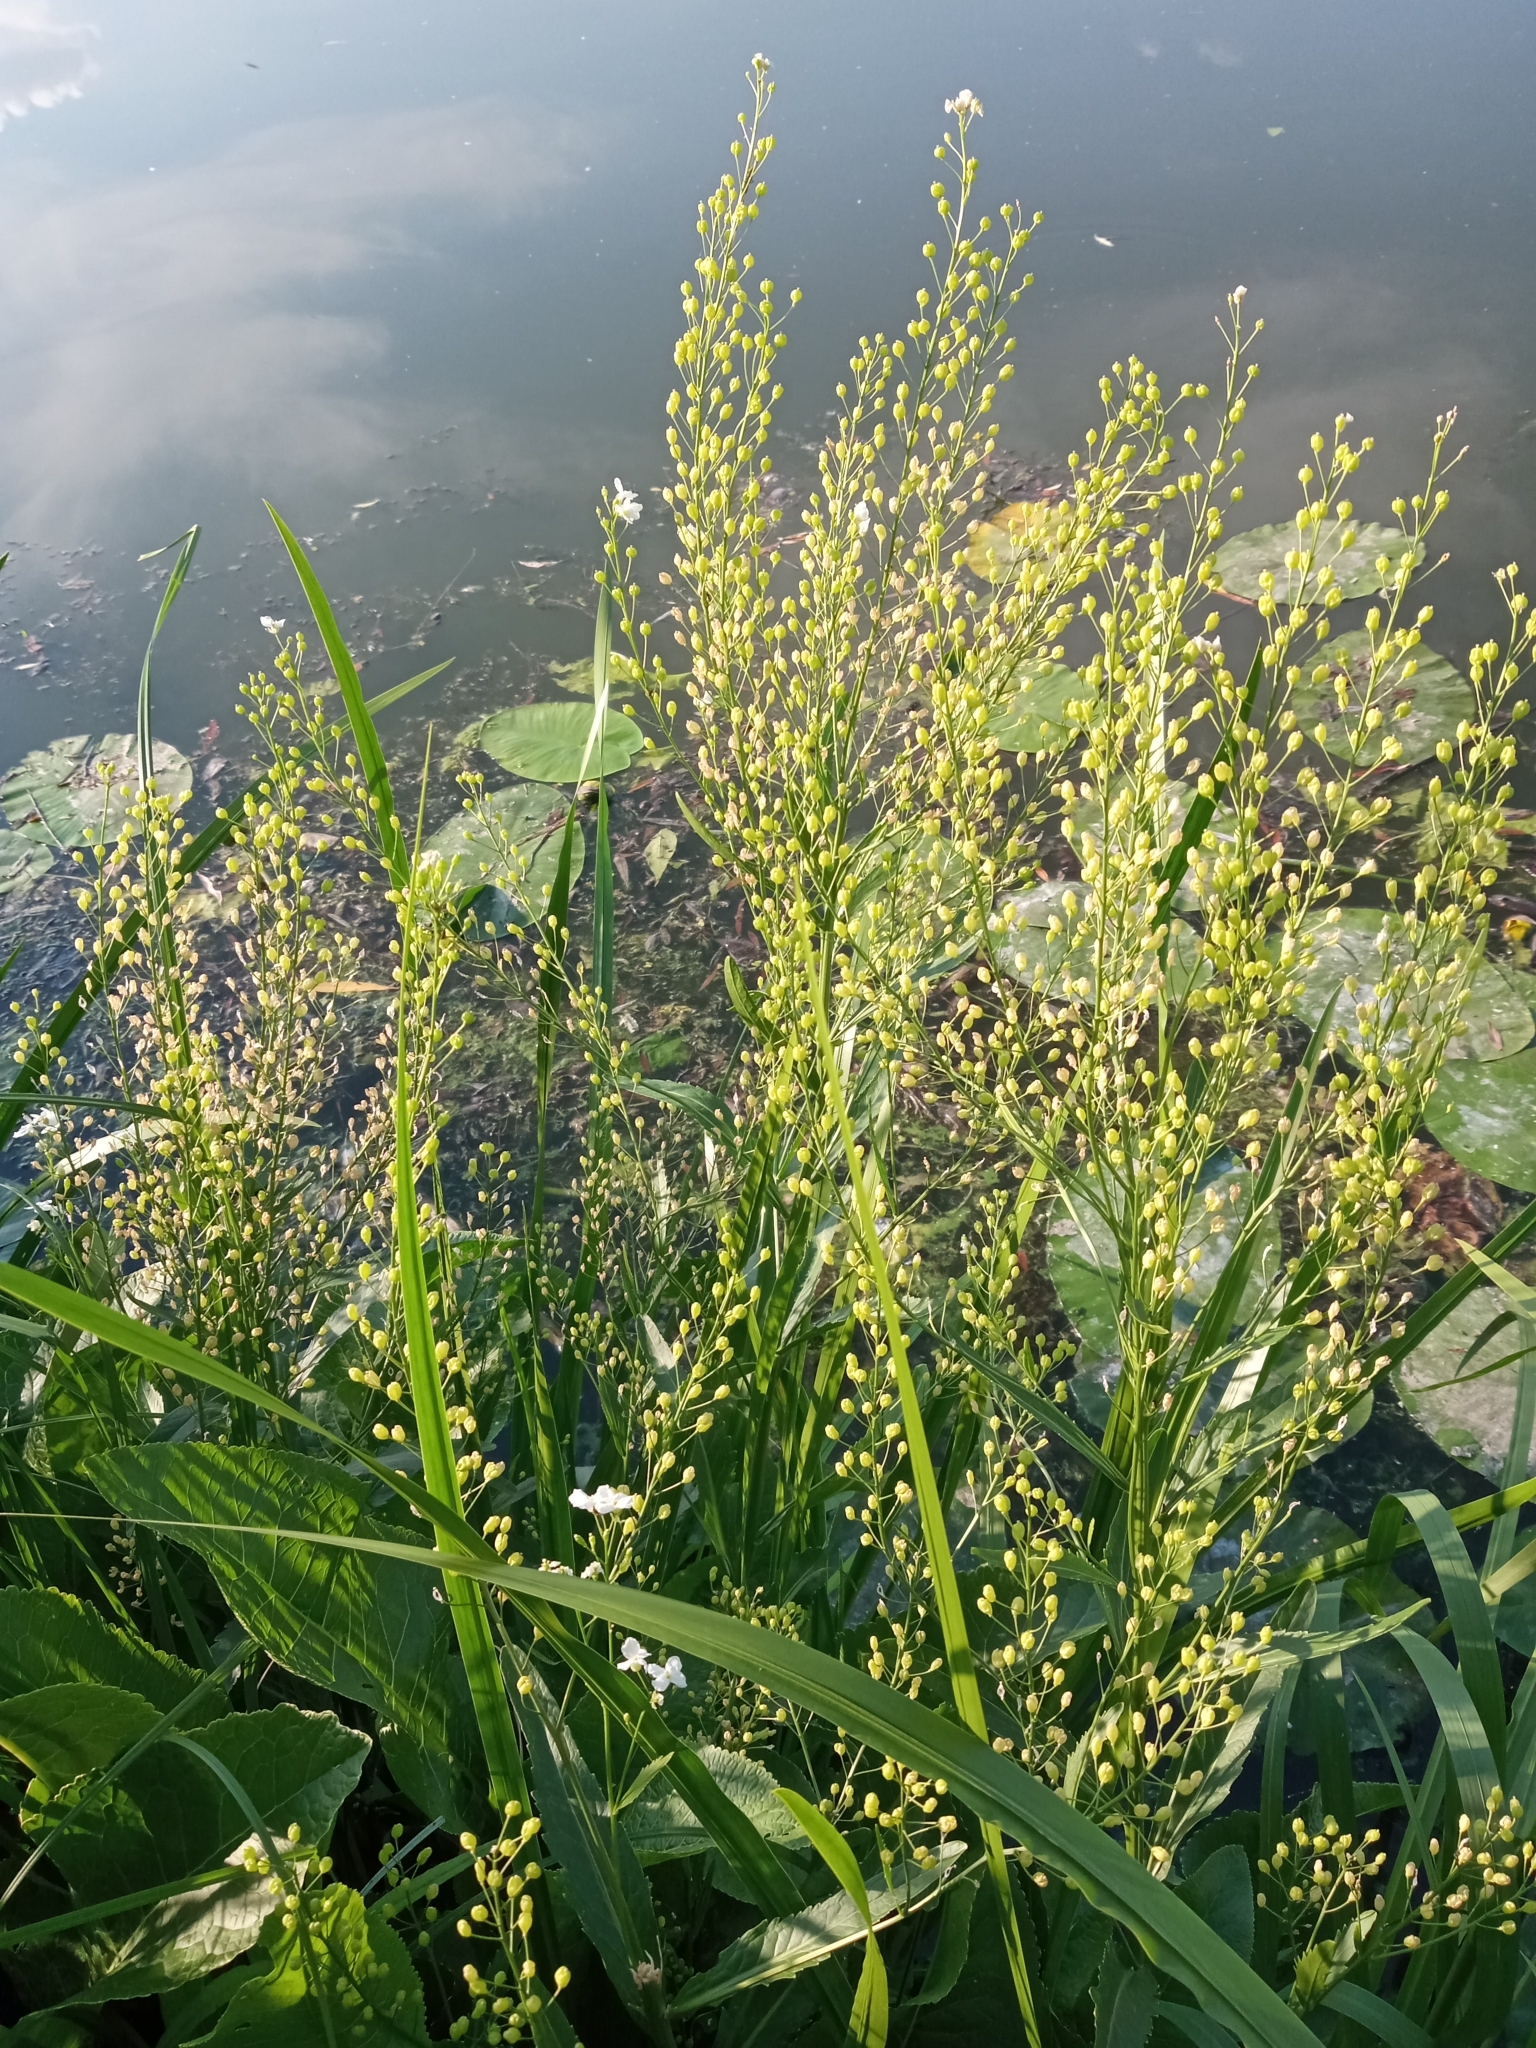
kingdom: Plantae
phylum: Tracheophyta
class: Magnoliopsida
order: Brassicales
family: Brassicaceae
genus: Armoracia
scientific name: Armoracia rusticana
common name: Horseradish
